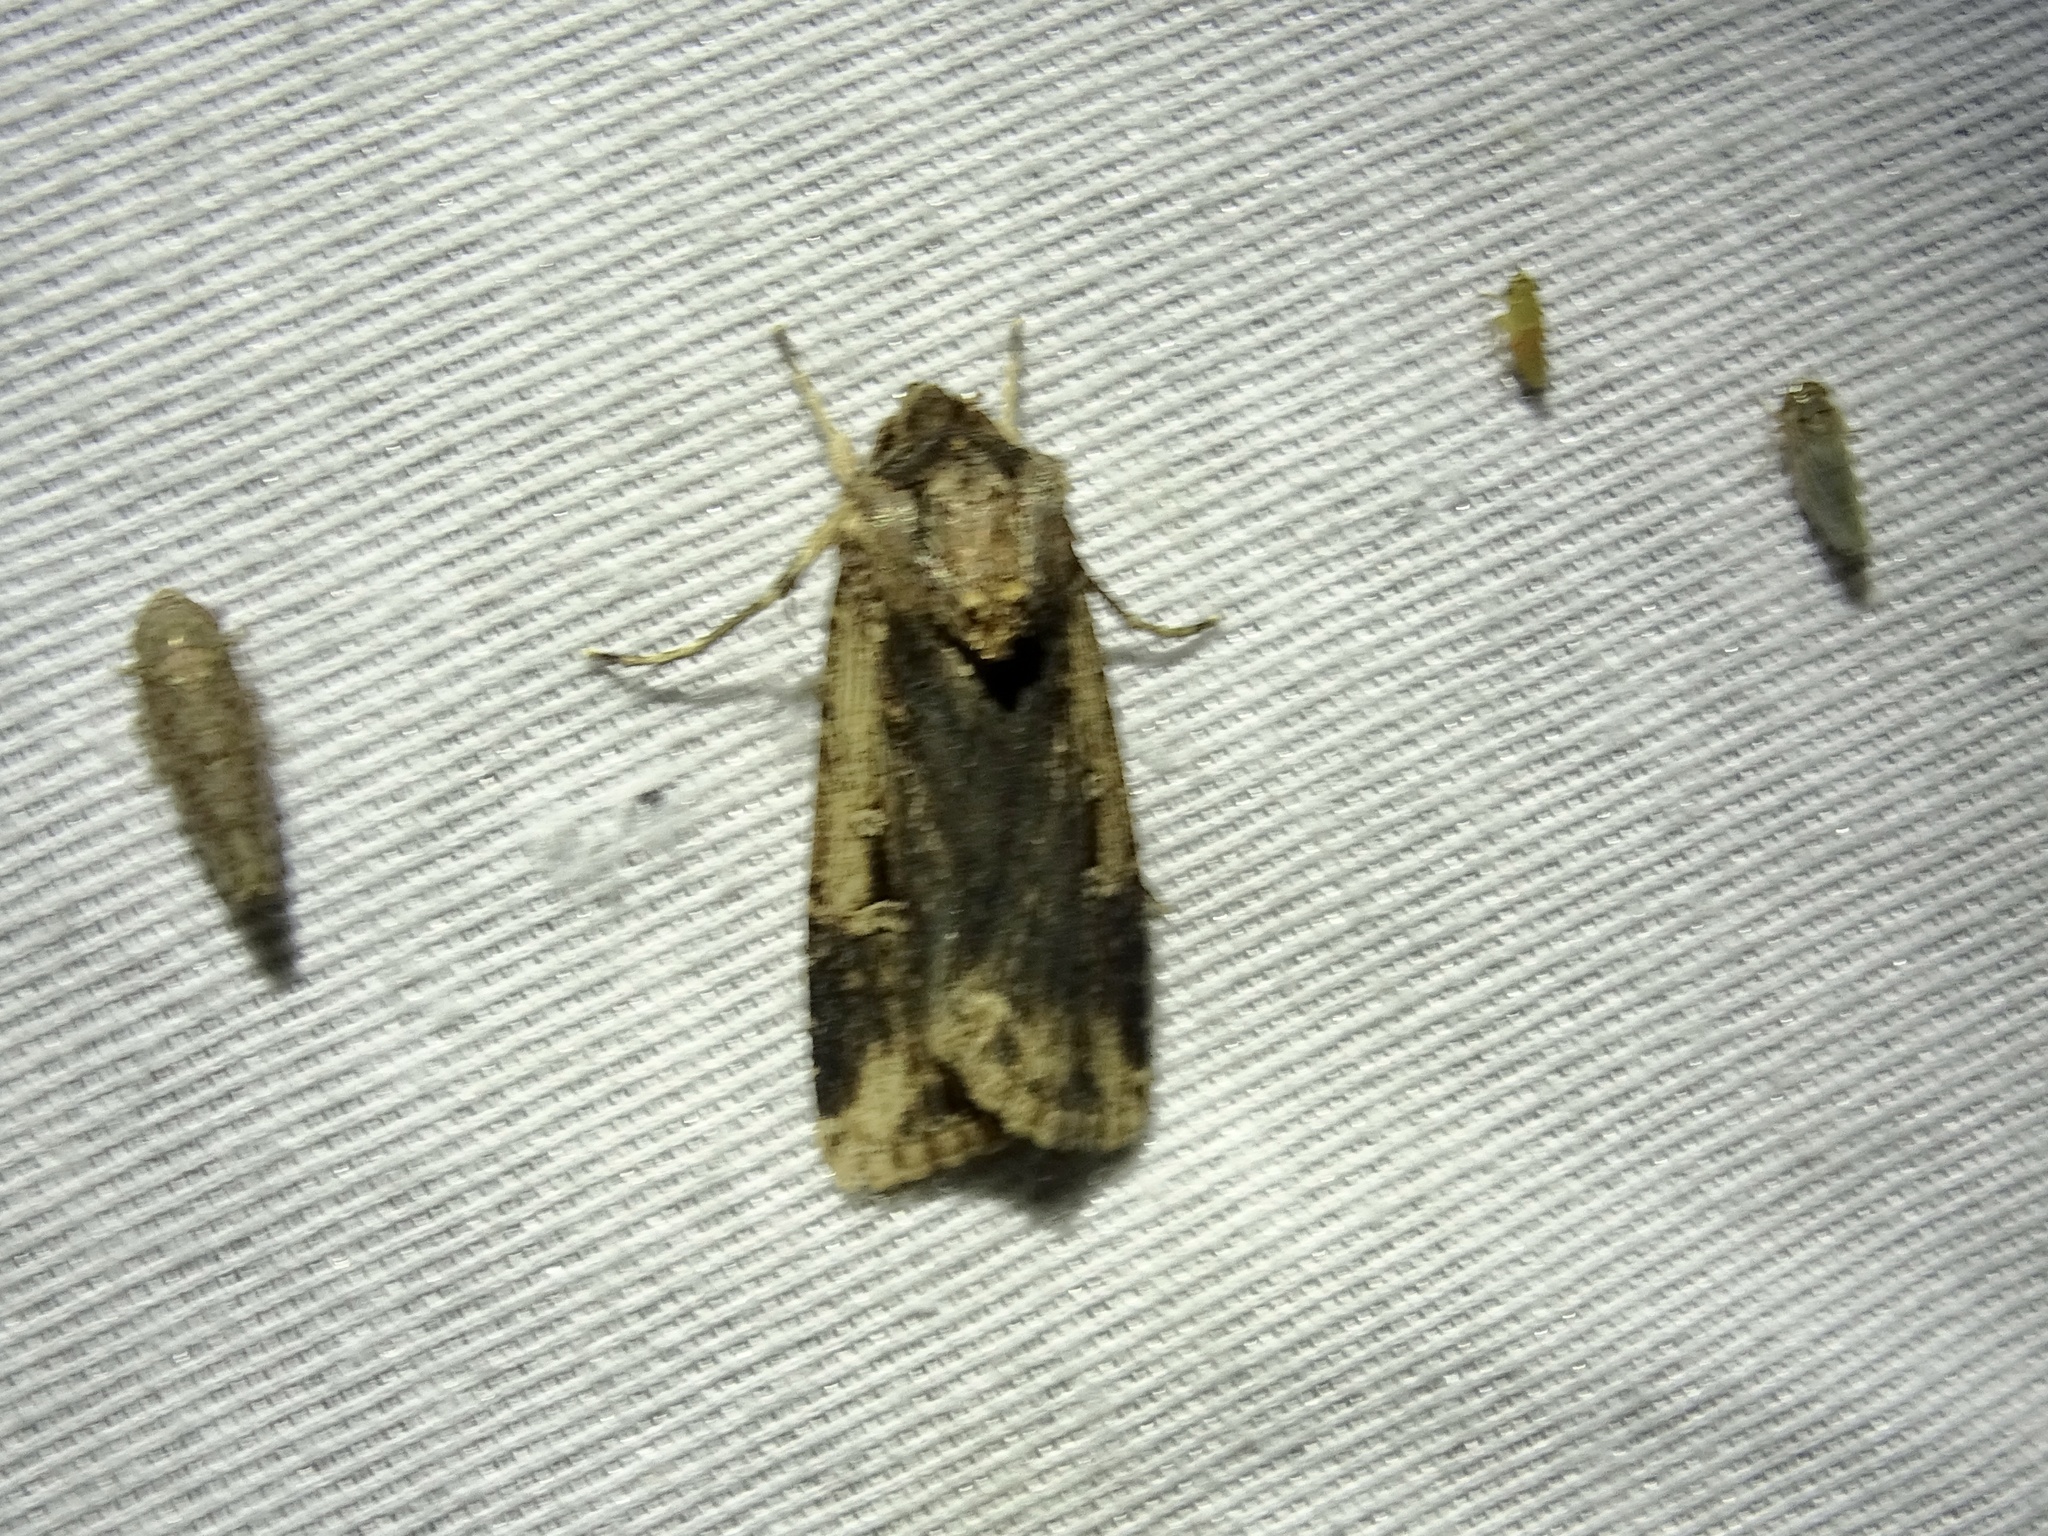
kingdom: Animalia
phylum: Arthropoda
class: Insecta
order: Lepidoptera
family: Noctuidae
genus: Feltia
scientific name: Feltia subterranea
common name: Granulate cutworm
